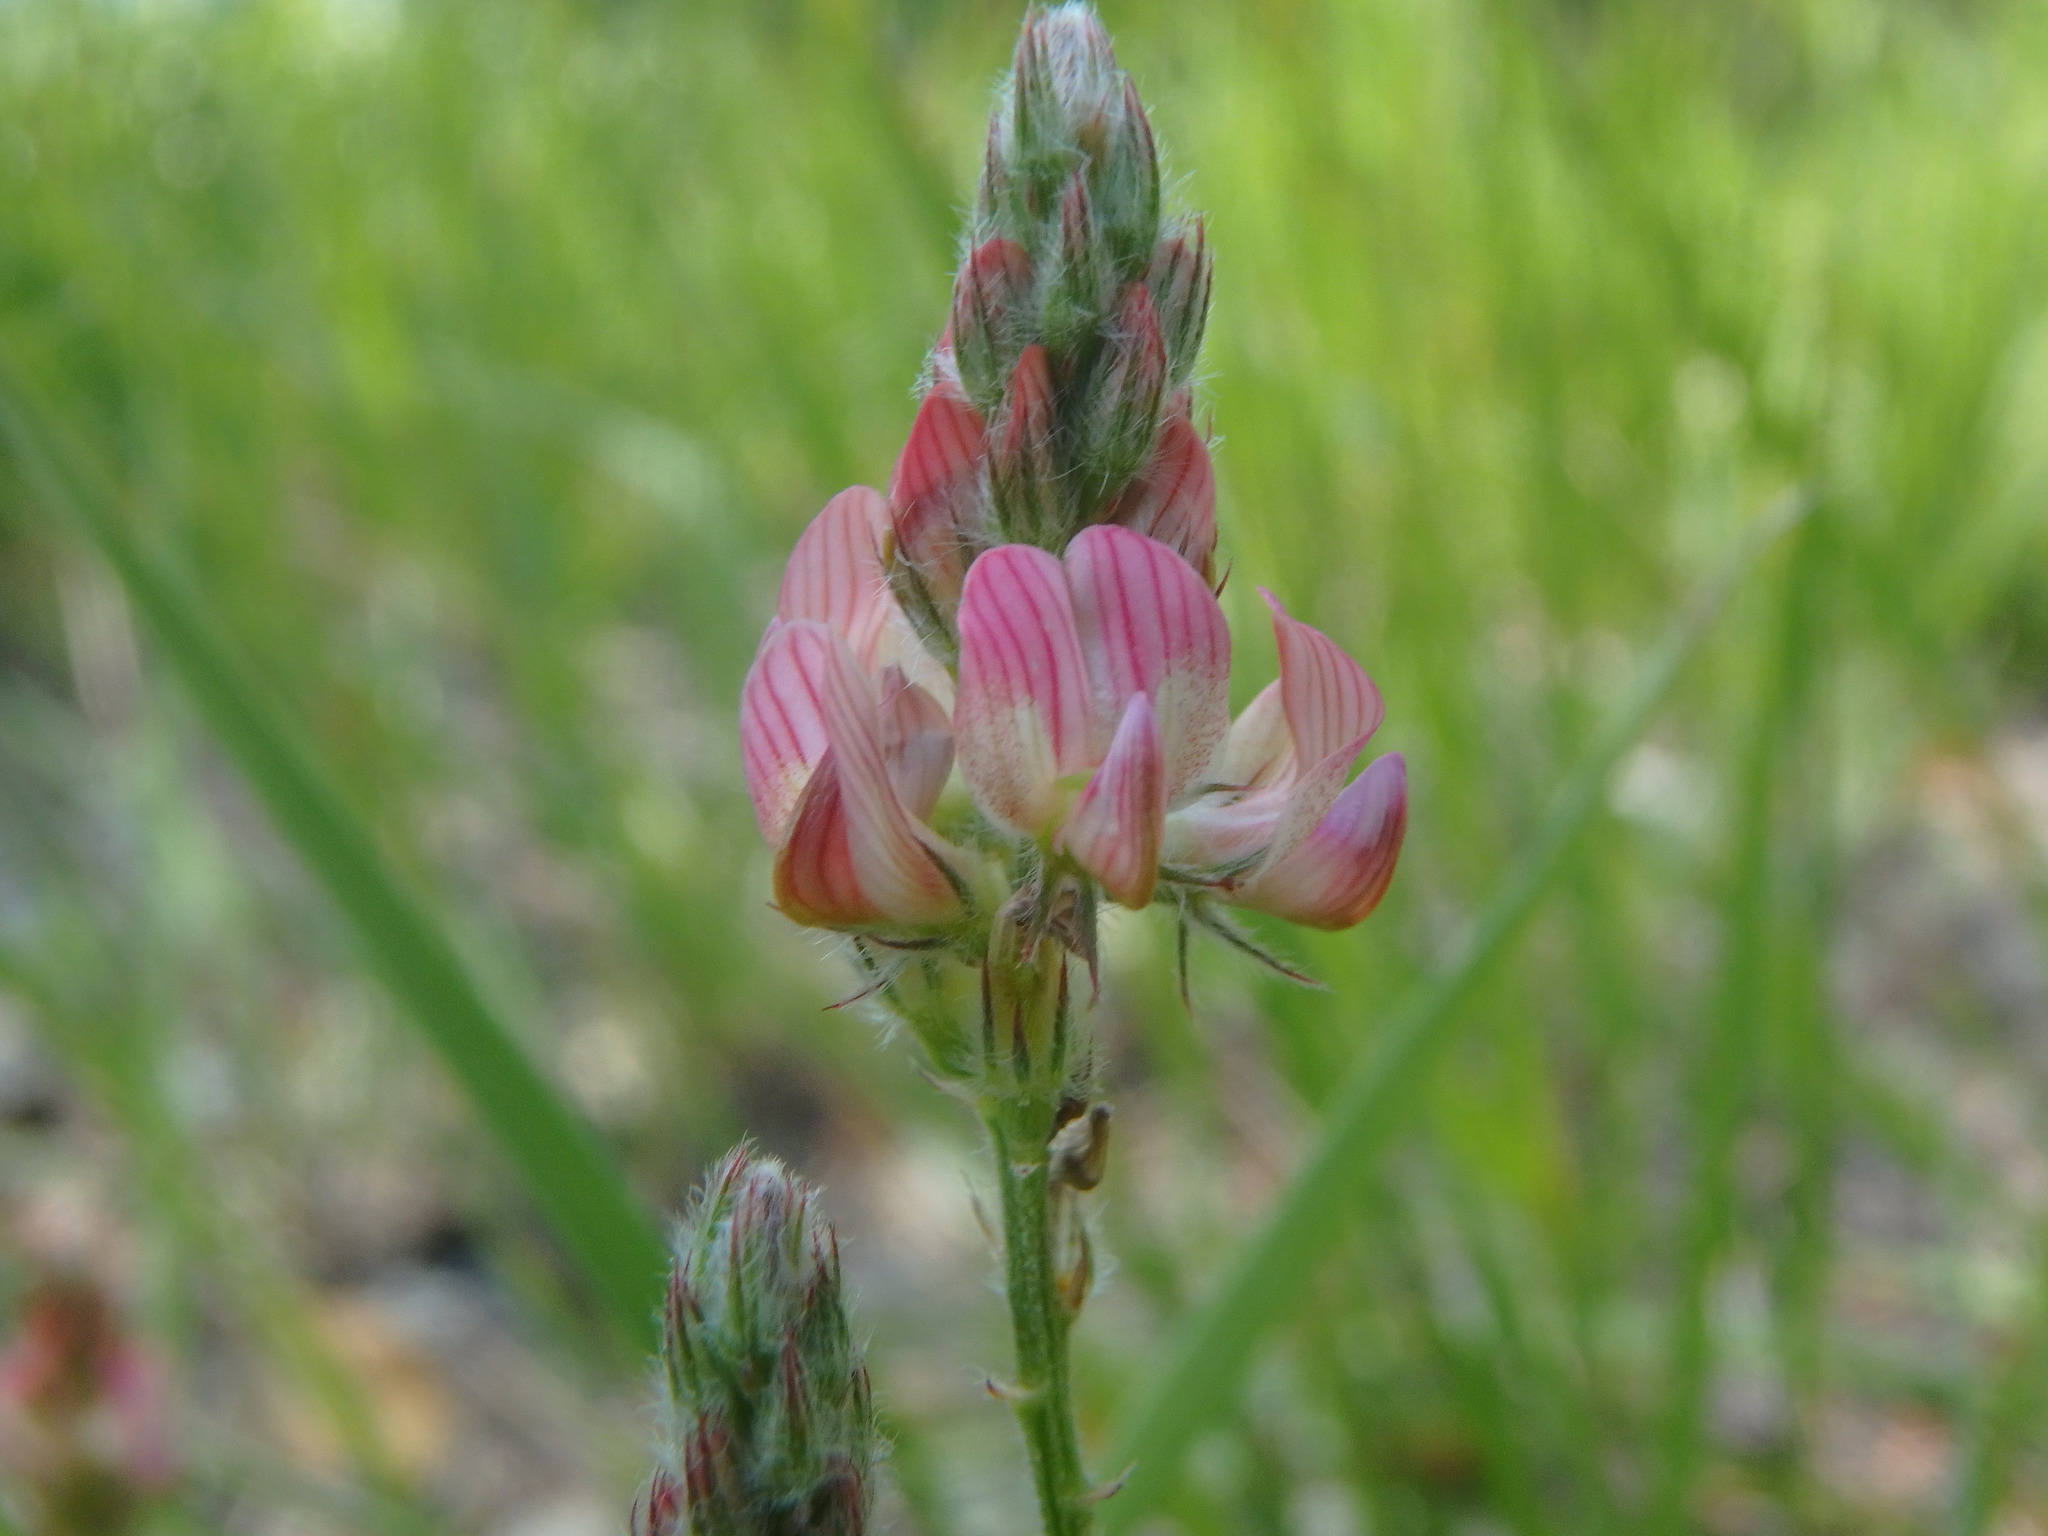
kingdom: Plantae
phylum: Tracheophyta
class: Magnoliopsida
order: Fabales
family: Fabaceae
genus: Onobrychis
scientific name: Onobrychis supina
